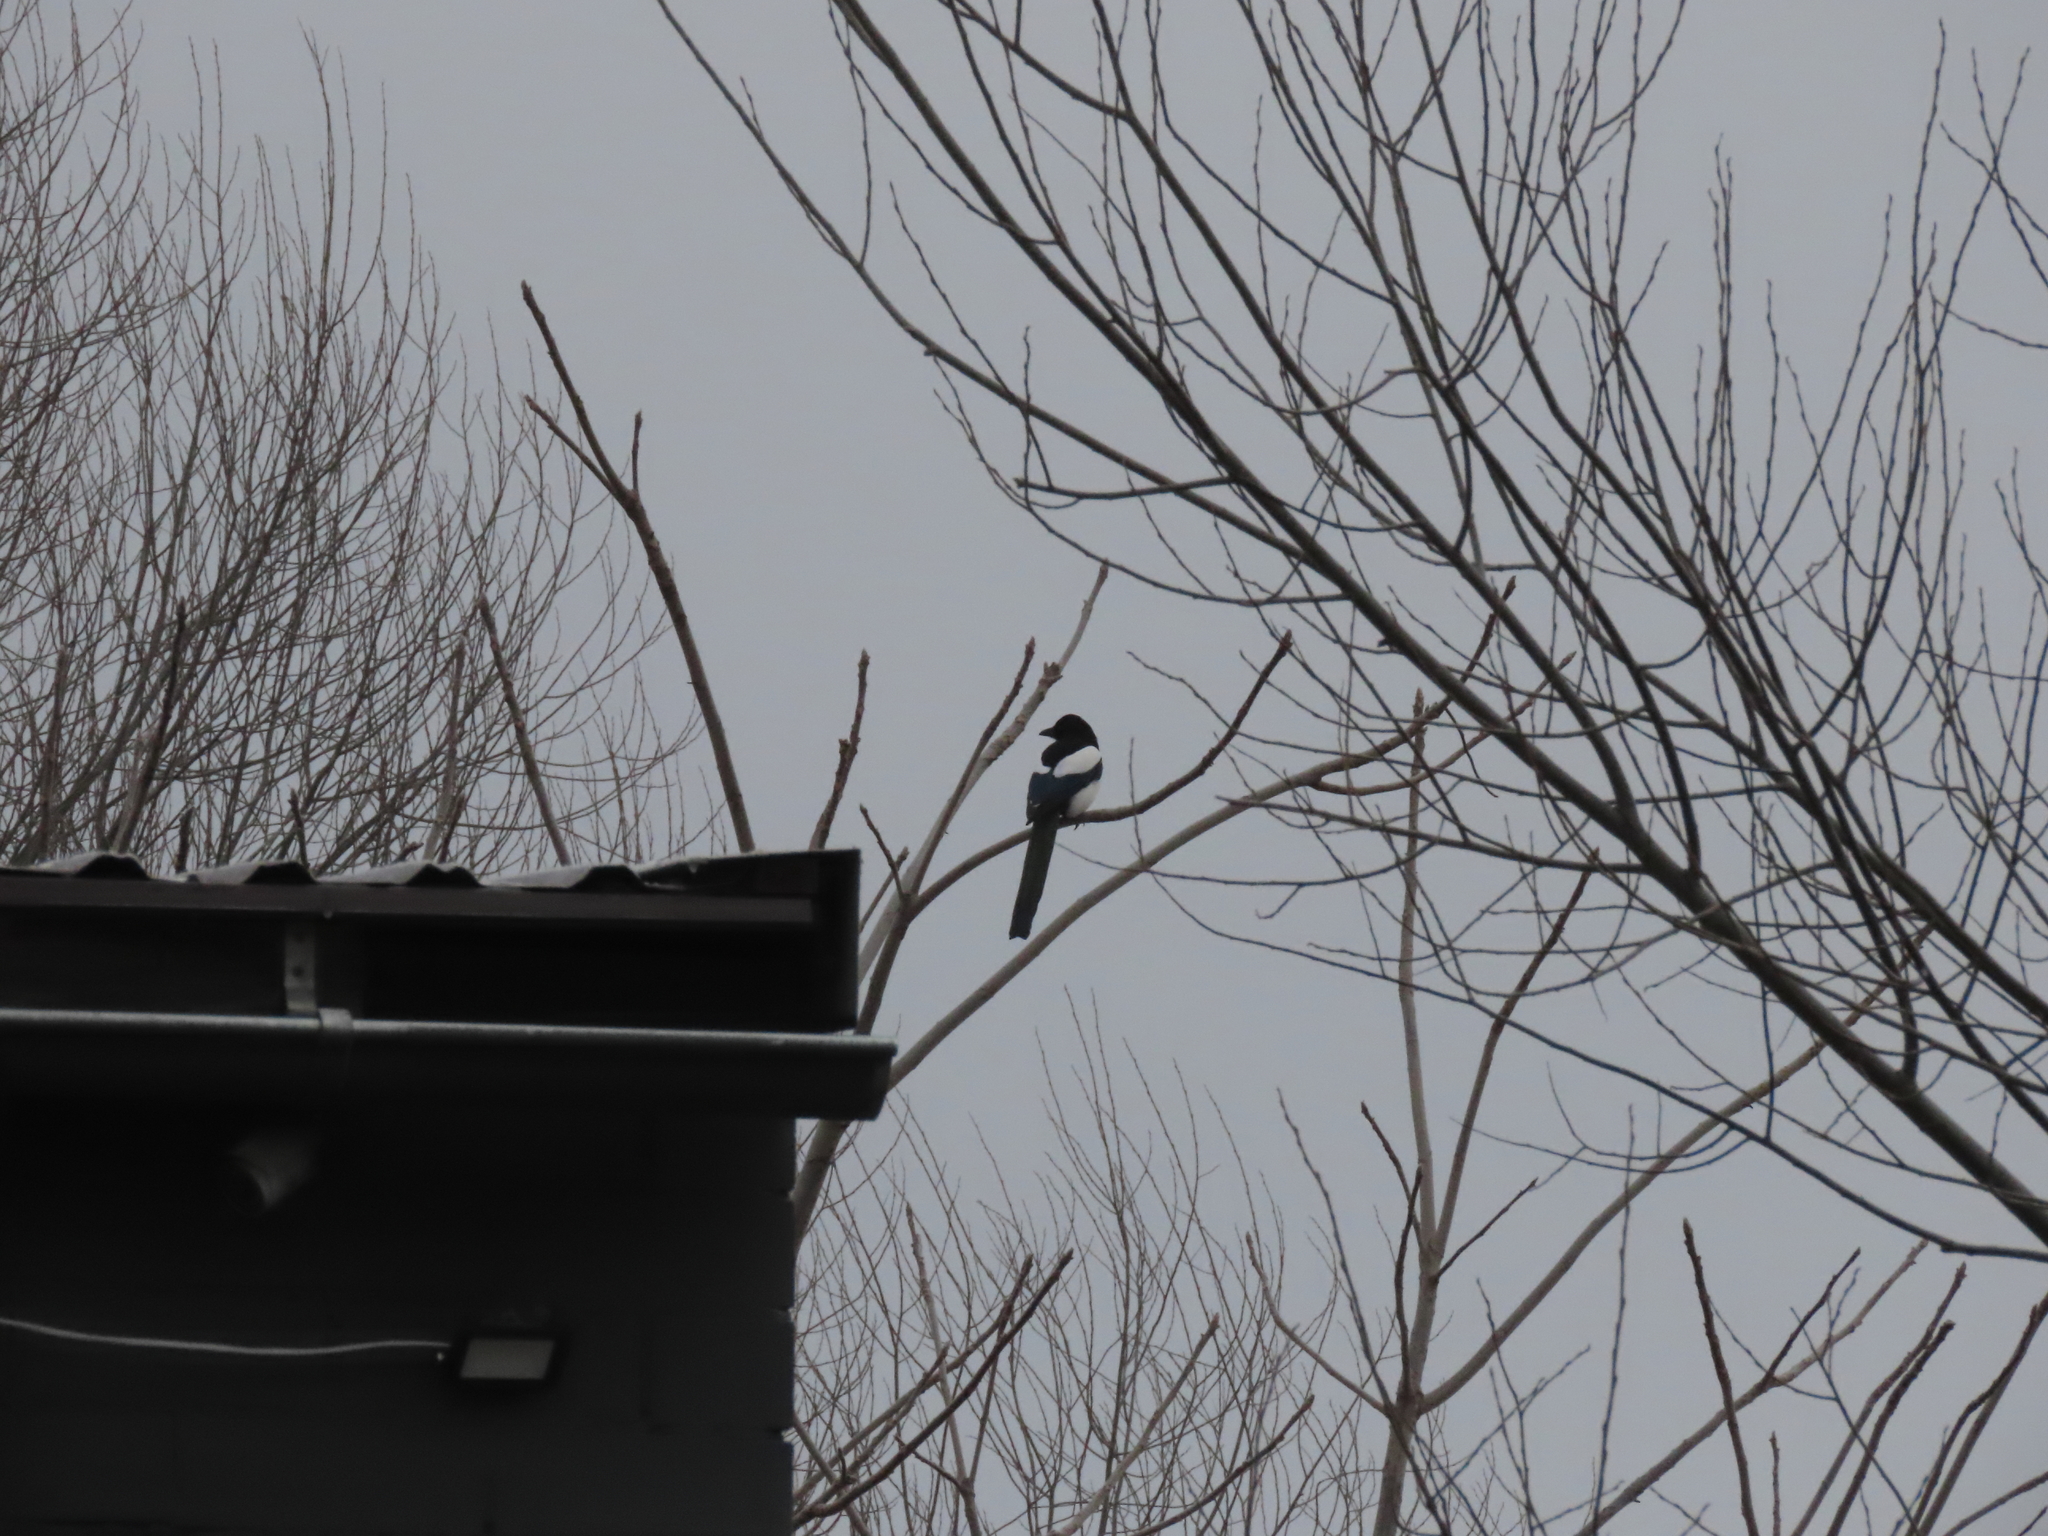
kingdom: Animalia
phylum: Chordata
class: Aves
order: Passeriformes
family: Corvidae
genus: Pica
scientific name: Pica pica
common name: Eurasian magpie
